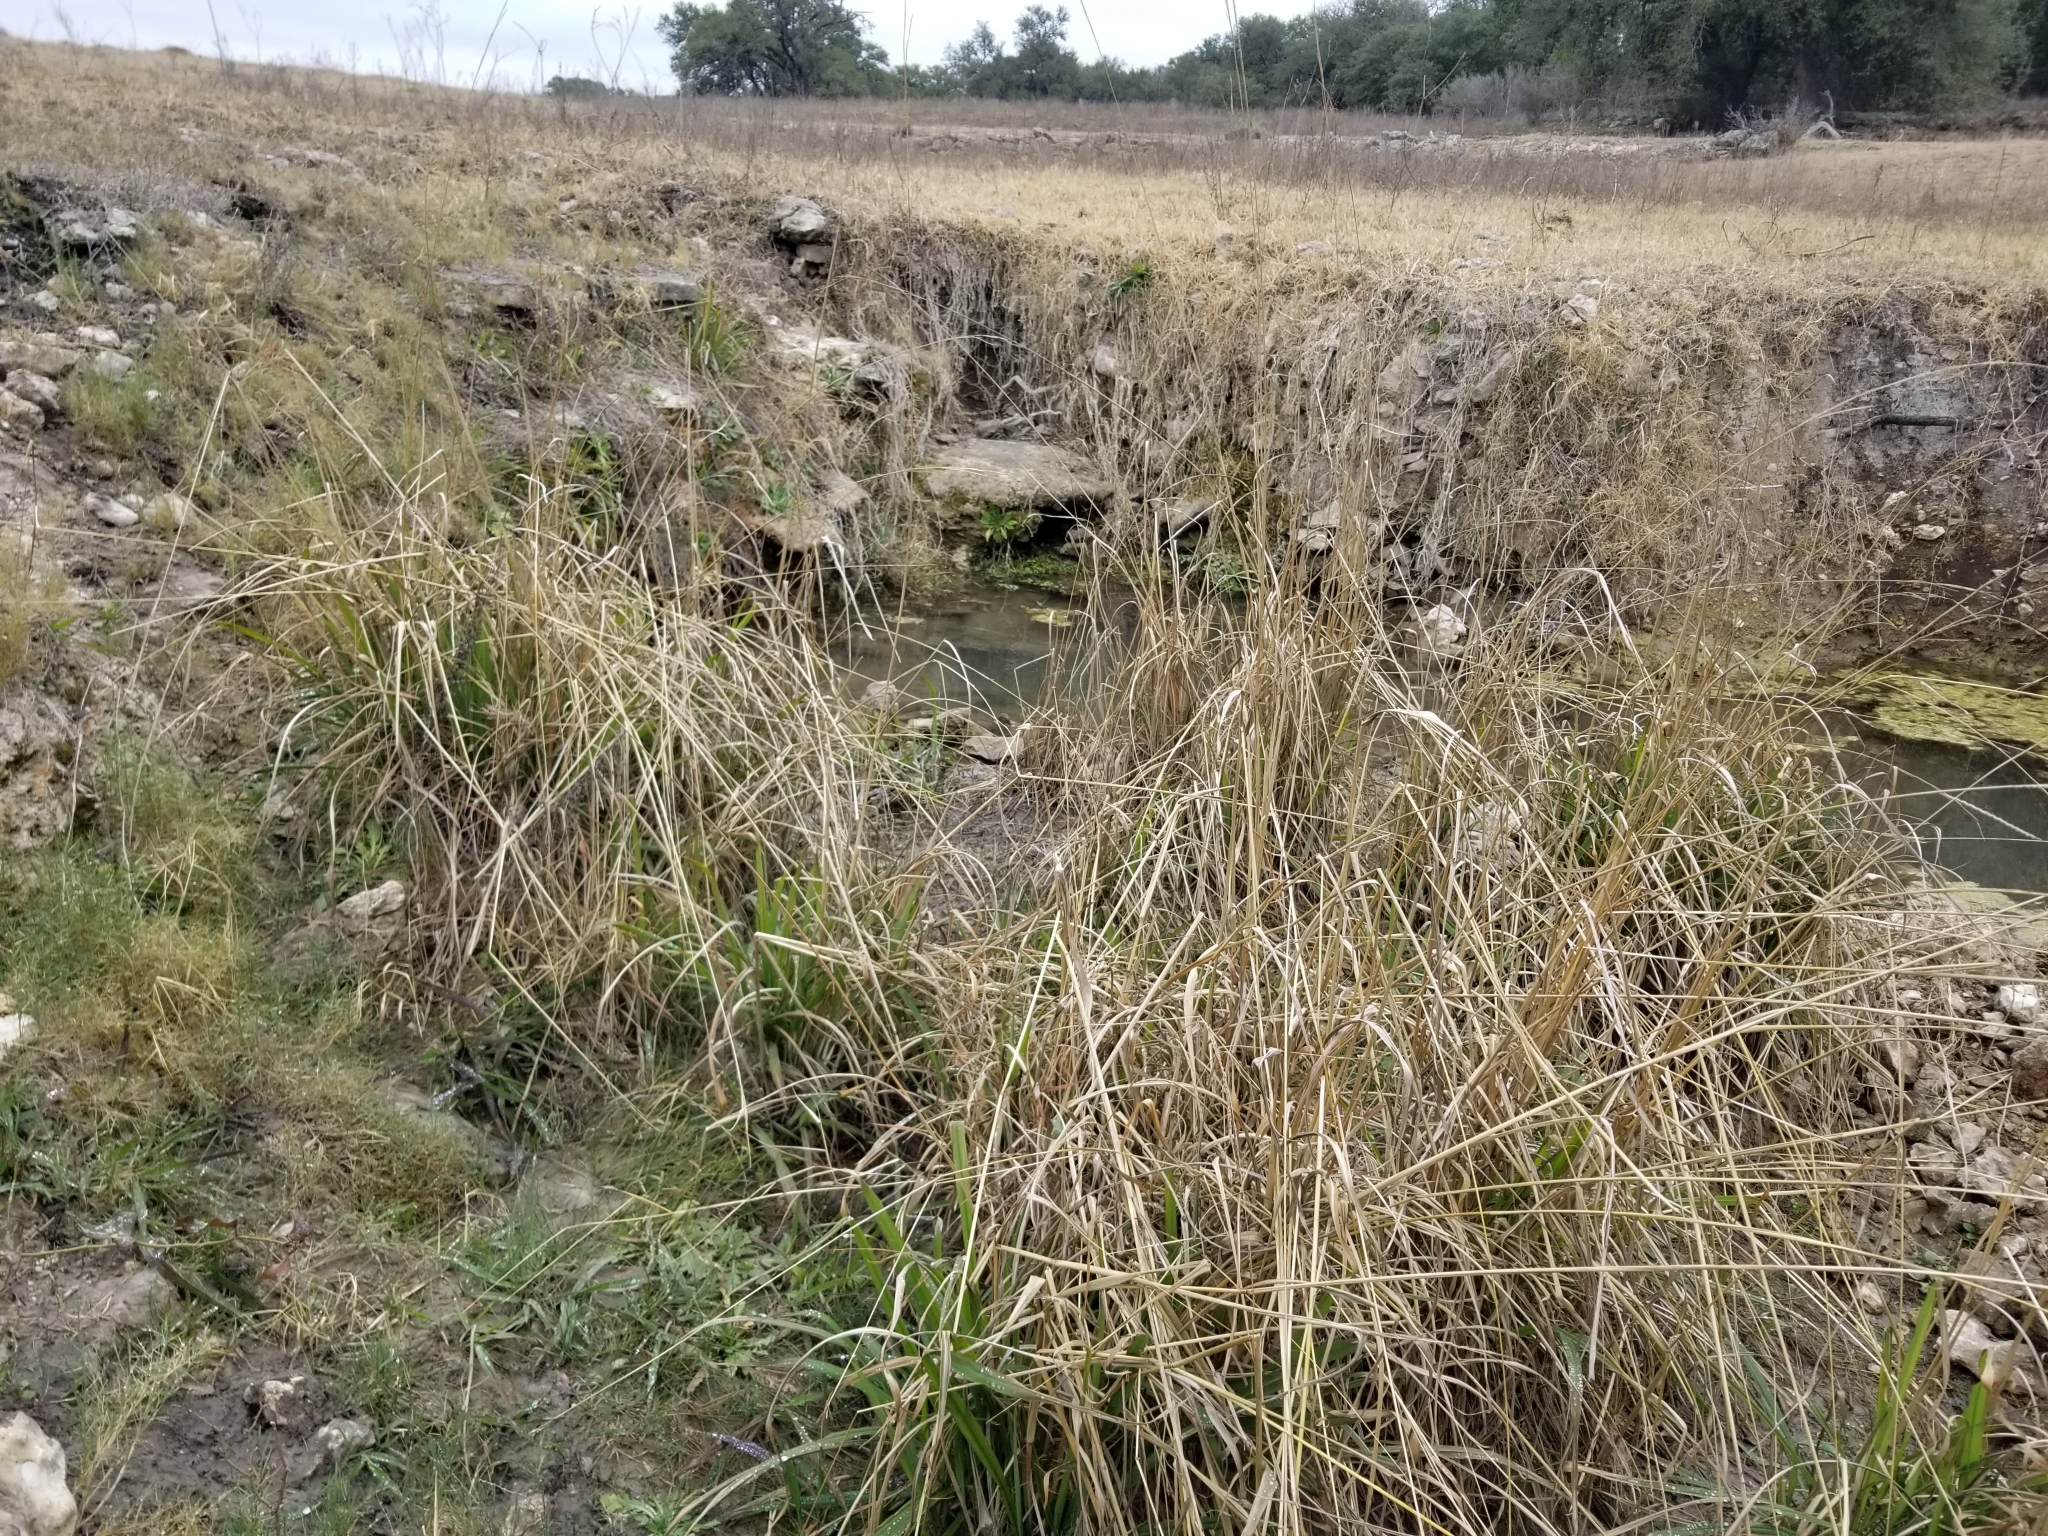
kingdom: Plantae
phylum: Tracheophyta
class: Liliopsida
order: Poales
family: Poaceae
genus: Paspalum
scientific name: Paspalum urvillei
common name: Vasey's grass
